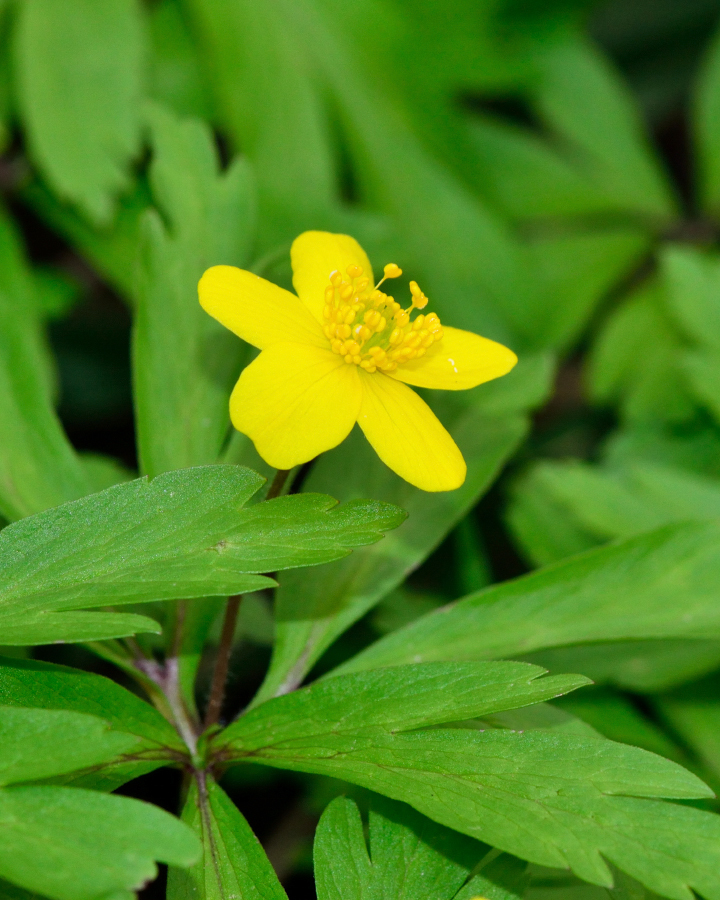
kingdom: Plantae
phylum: Tracheophyta
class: Magnoliopsida
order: Ranunculales
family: Ranunculaceae
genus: Anemone
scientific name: Anemone ranunculoides
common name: Yellow anemone
